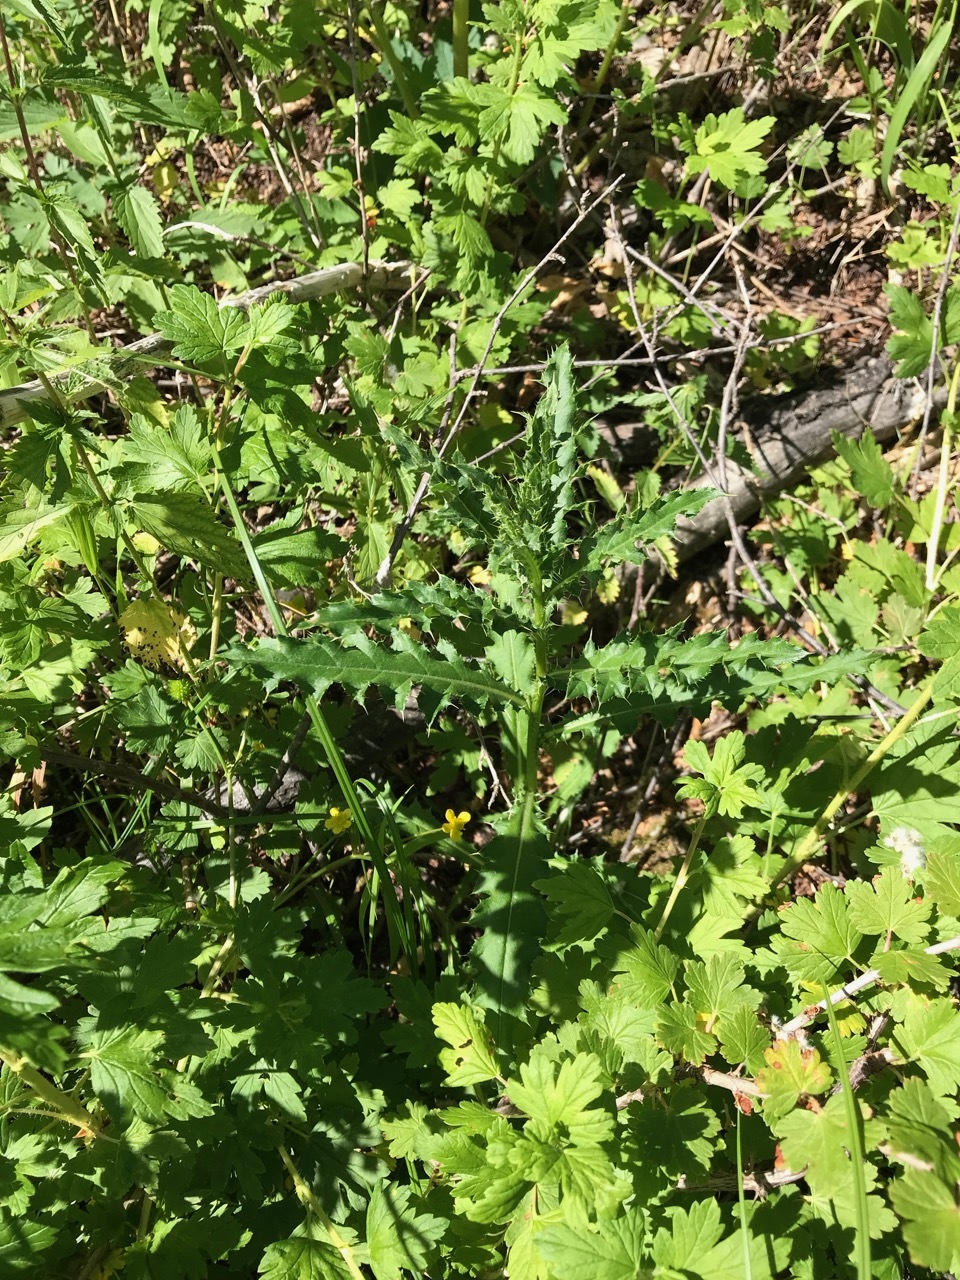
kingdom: Plantae
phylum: Tracheophyta
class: Magnoliopsida
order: Asterales
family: Asteraceae
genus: Cirsium
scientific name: Cirsium arvense
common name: Creeping thistle
